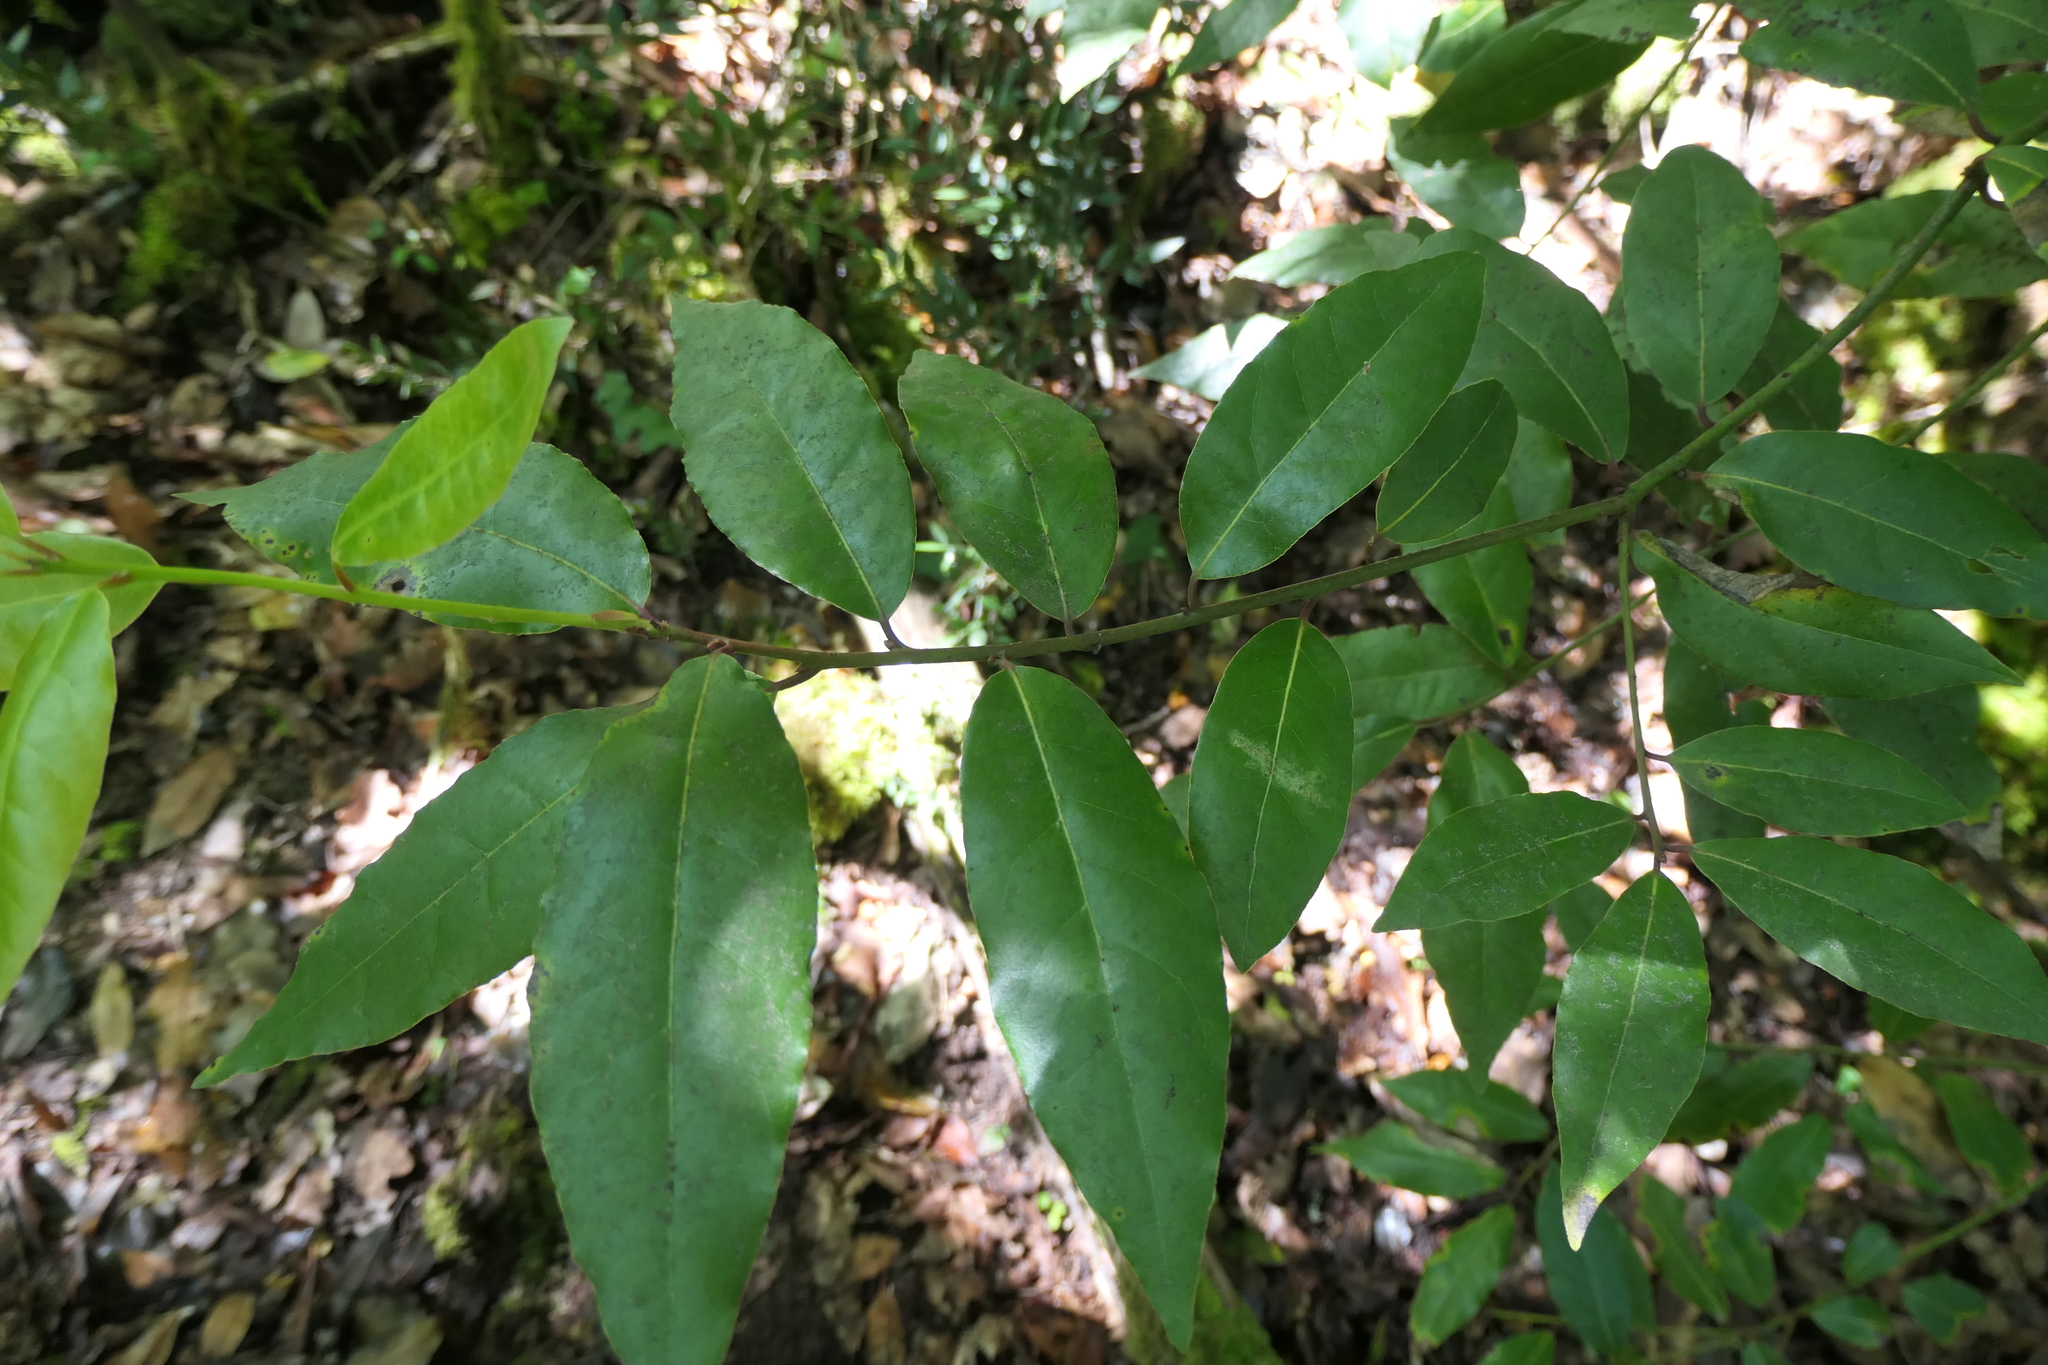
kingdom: Plantae
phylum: Tracheophyta
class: Magnoliopsida
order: Laurales
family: Lauraceae
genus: Laurus
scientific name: Laurus nobilis
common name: Bay
